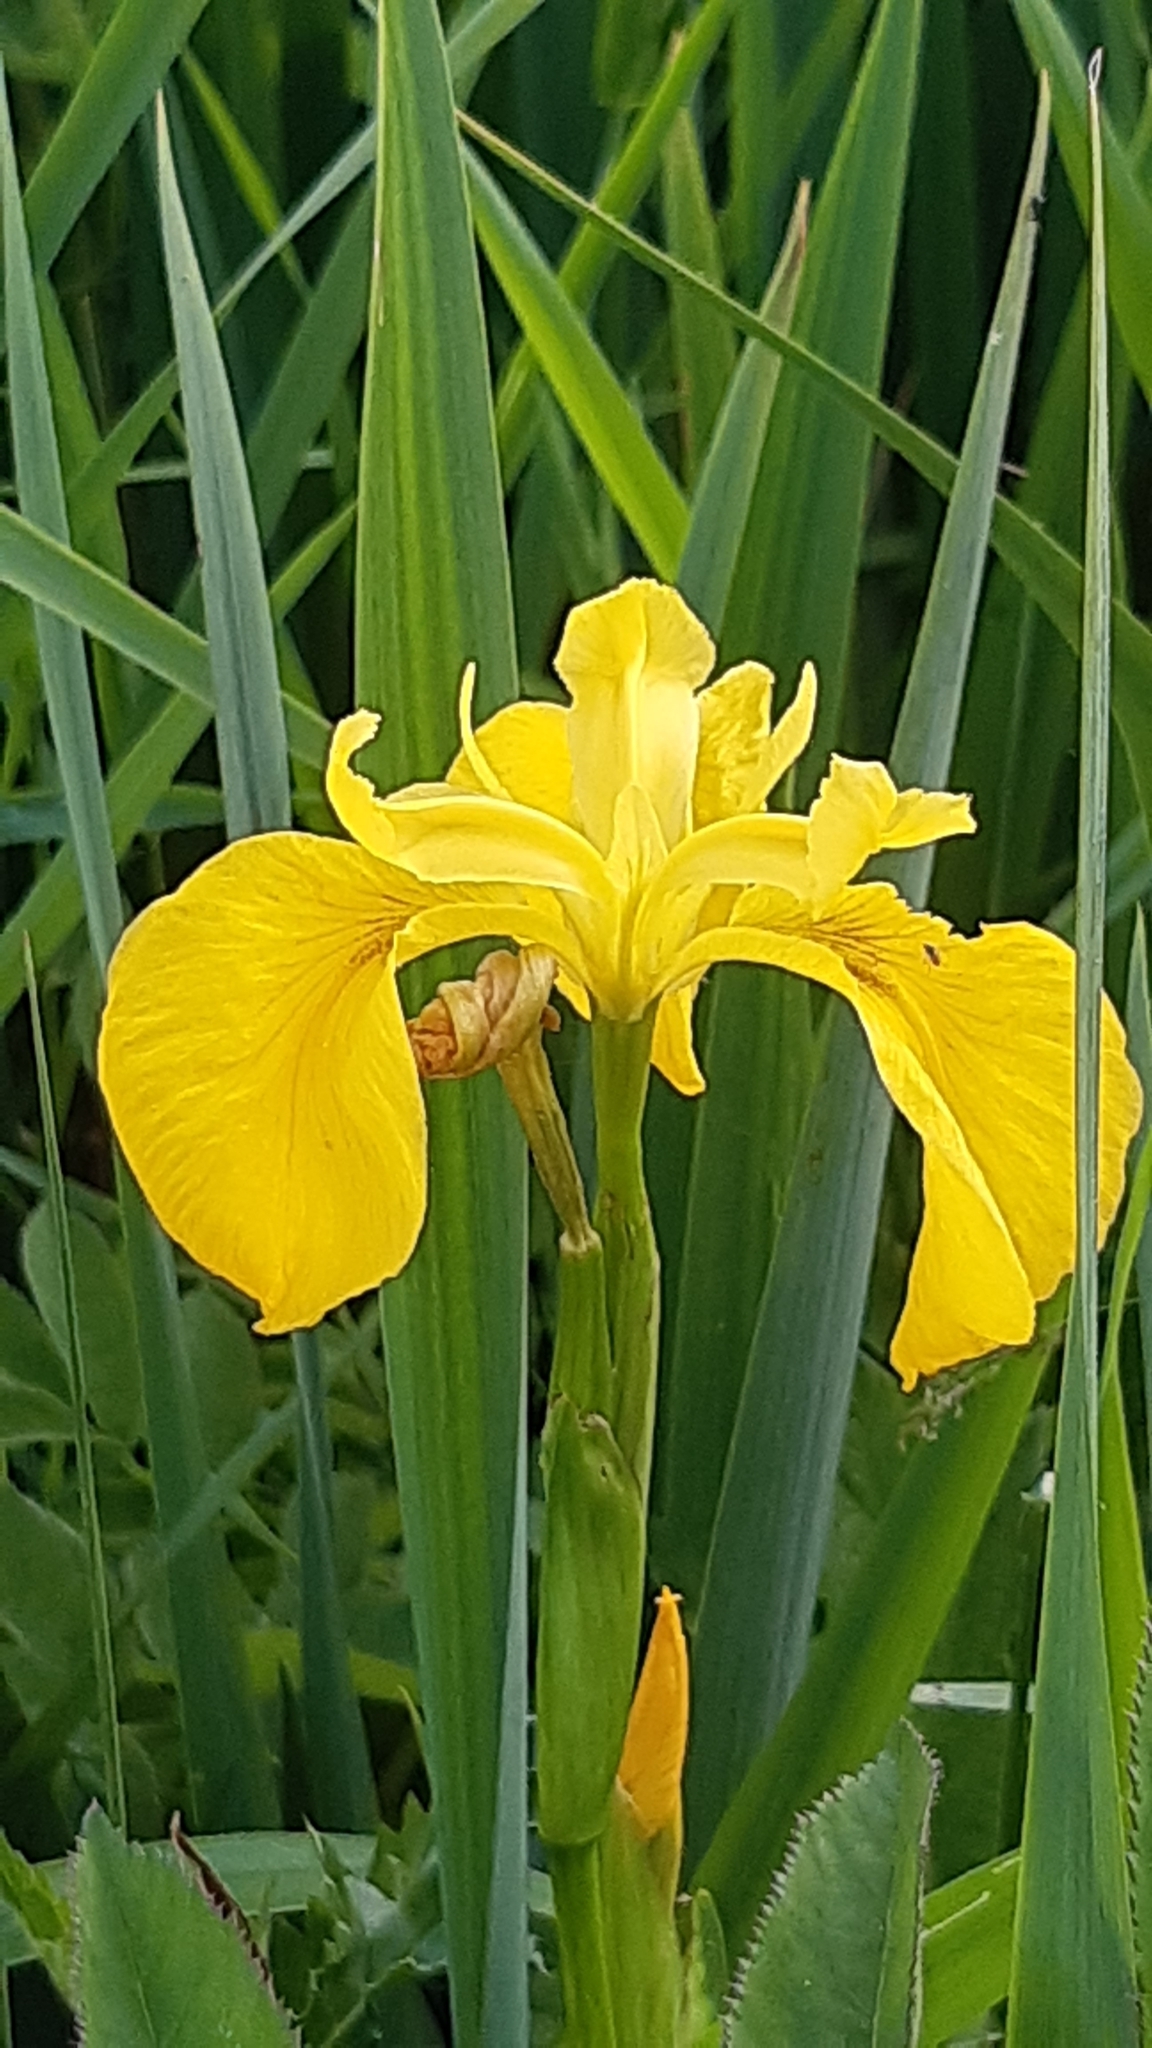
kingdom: Plantae
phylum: Tracheophyta
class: Liliopsida
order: Asparagales
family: Iridaceae
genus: Iris
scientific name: Iris pseudacorus
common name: Yellow flag
